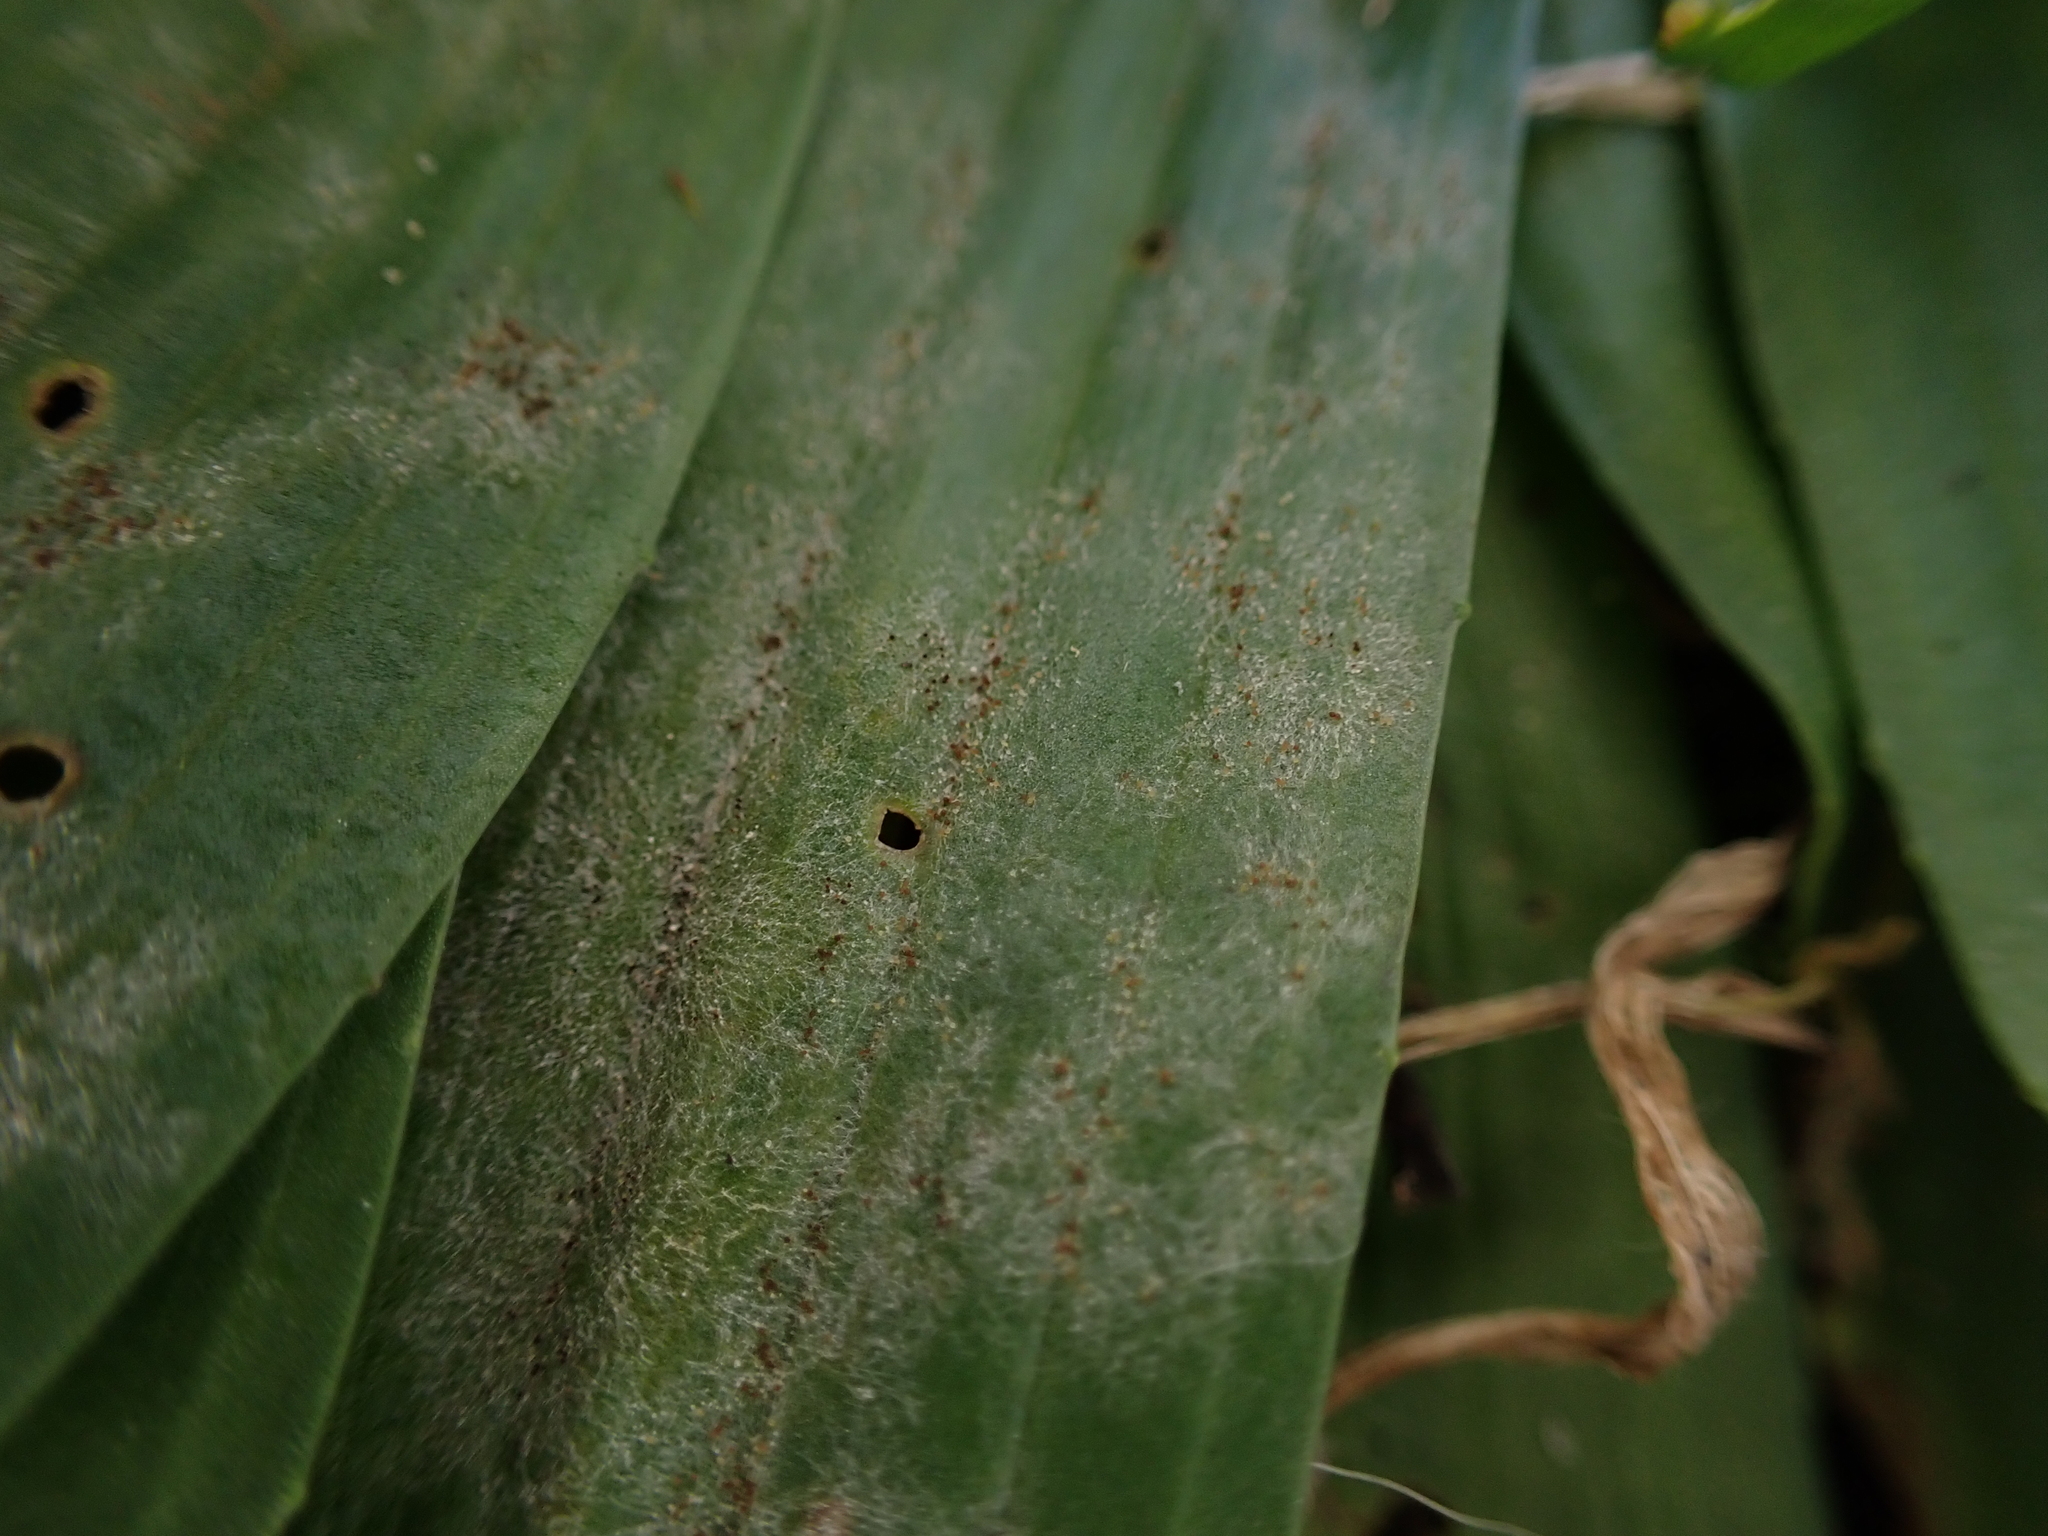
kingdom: Fungi
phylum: Ascomycota
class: Leotiomycetes
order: Helotiales
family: Erysiphaceae
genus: Podosphaera
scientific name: Podosphaera plantaginis
